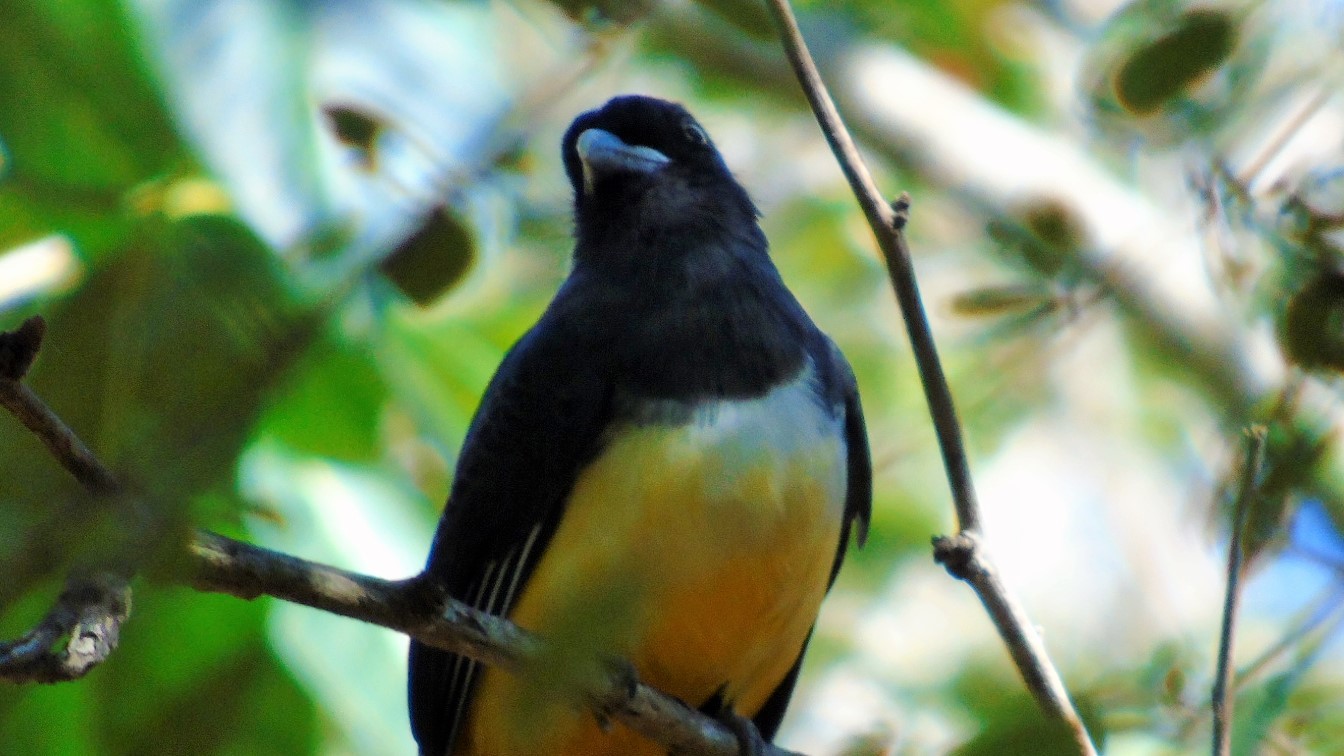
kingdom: Animalia
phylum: Chordata
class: Aves
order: Trogoniformes
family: Trogonidae
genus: Trogon
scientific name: Trogon citreolus
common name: Citreoline trogon
